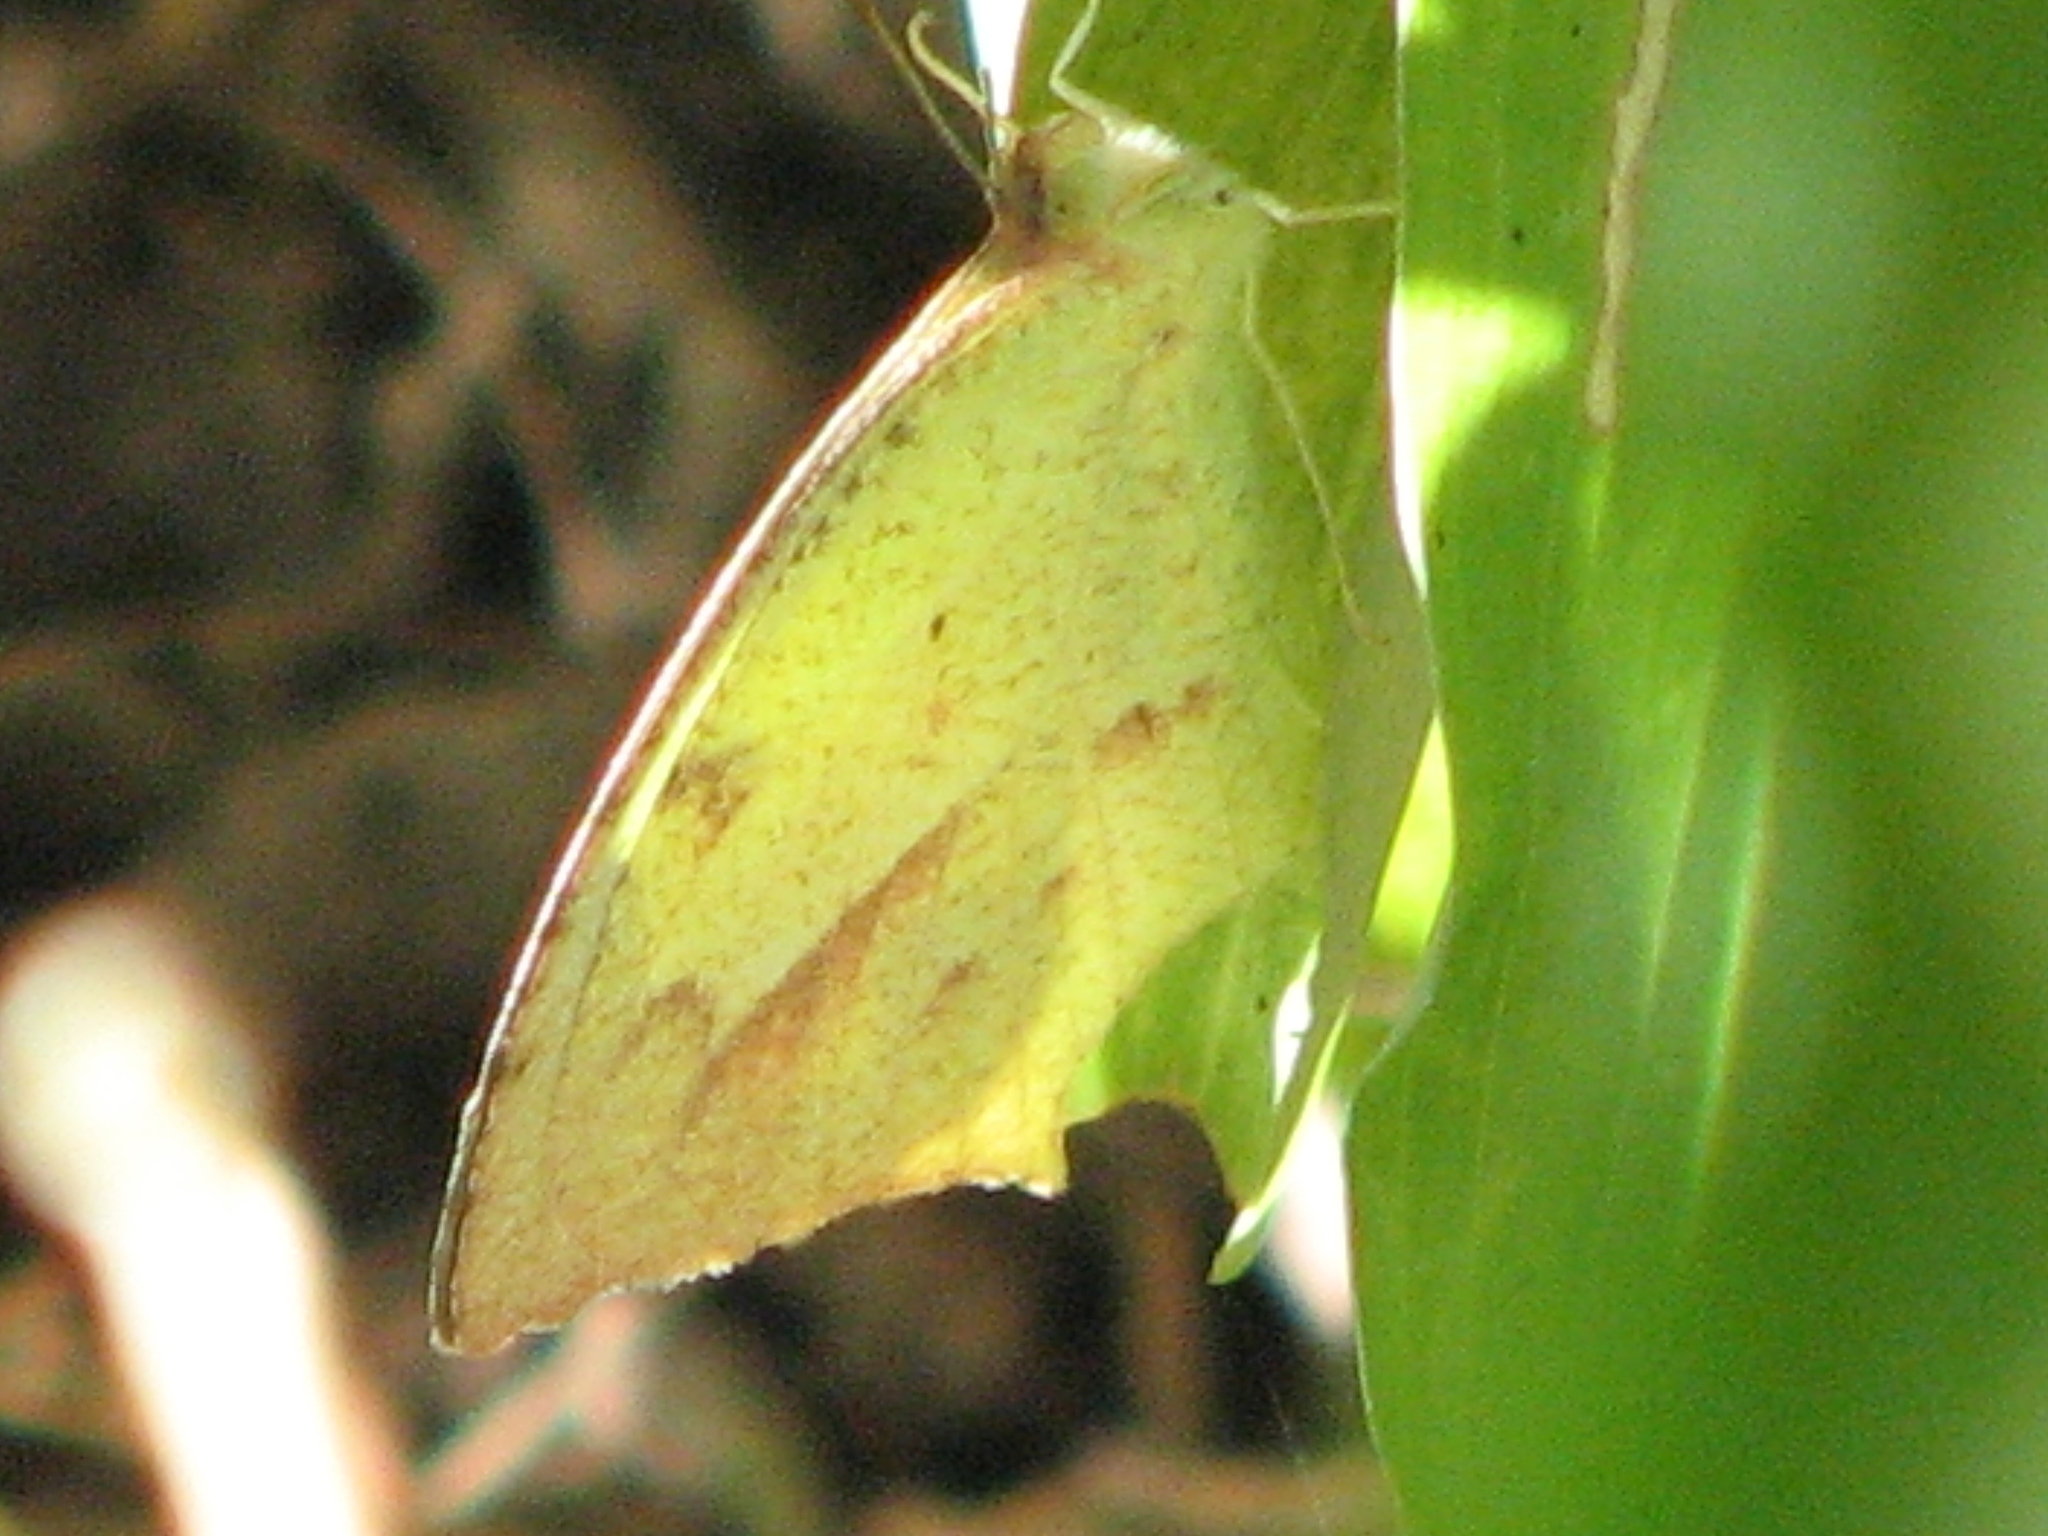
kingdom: Animalia
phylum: Arthropoda
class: Insecta
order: Lepidoptera
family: Pieridae
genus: Abaeis
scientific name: Abaeis mexicana
